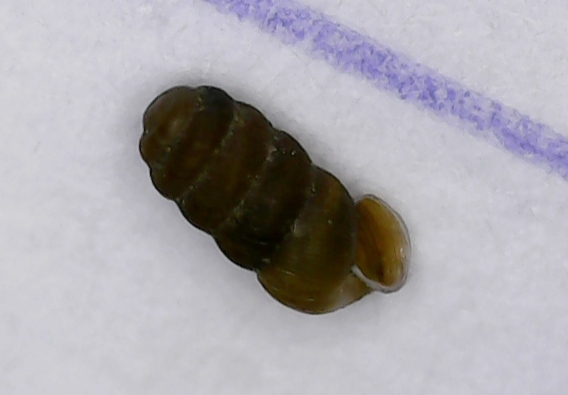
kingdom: Animalia
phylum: Mollusca
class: Gastropoda
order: Stylommatophora
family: Truncatellinidae
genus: Truncatellina
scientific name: Truncatellina cylindrica
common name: Cylindrical whorl snail
